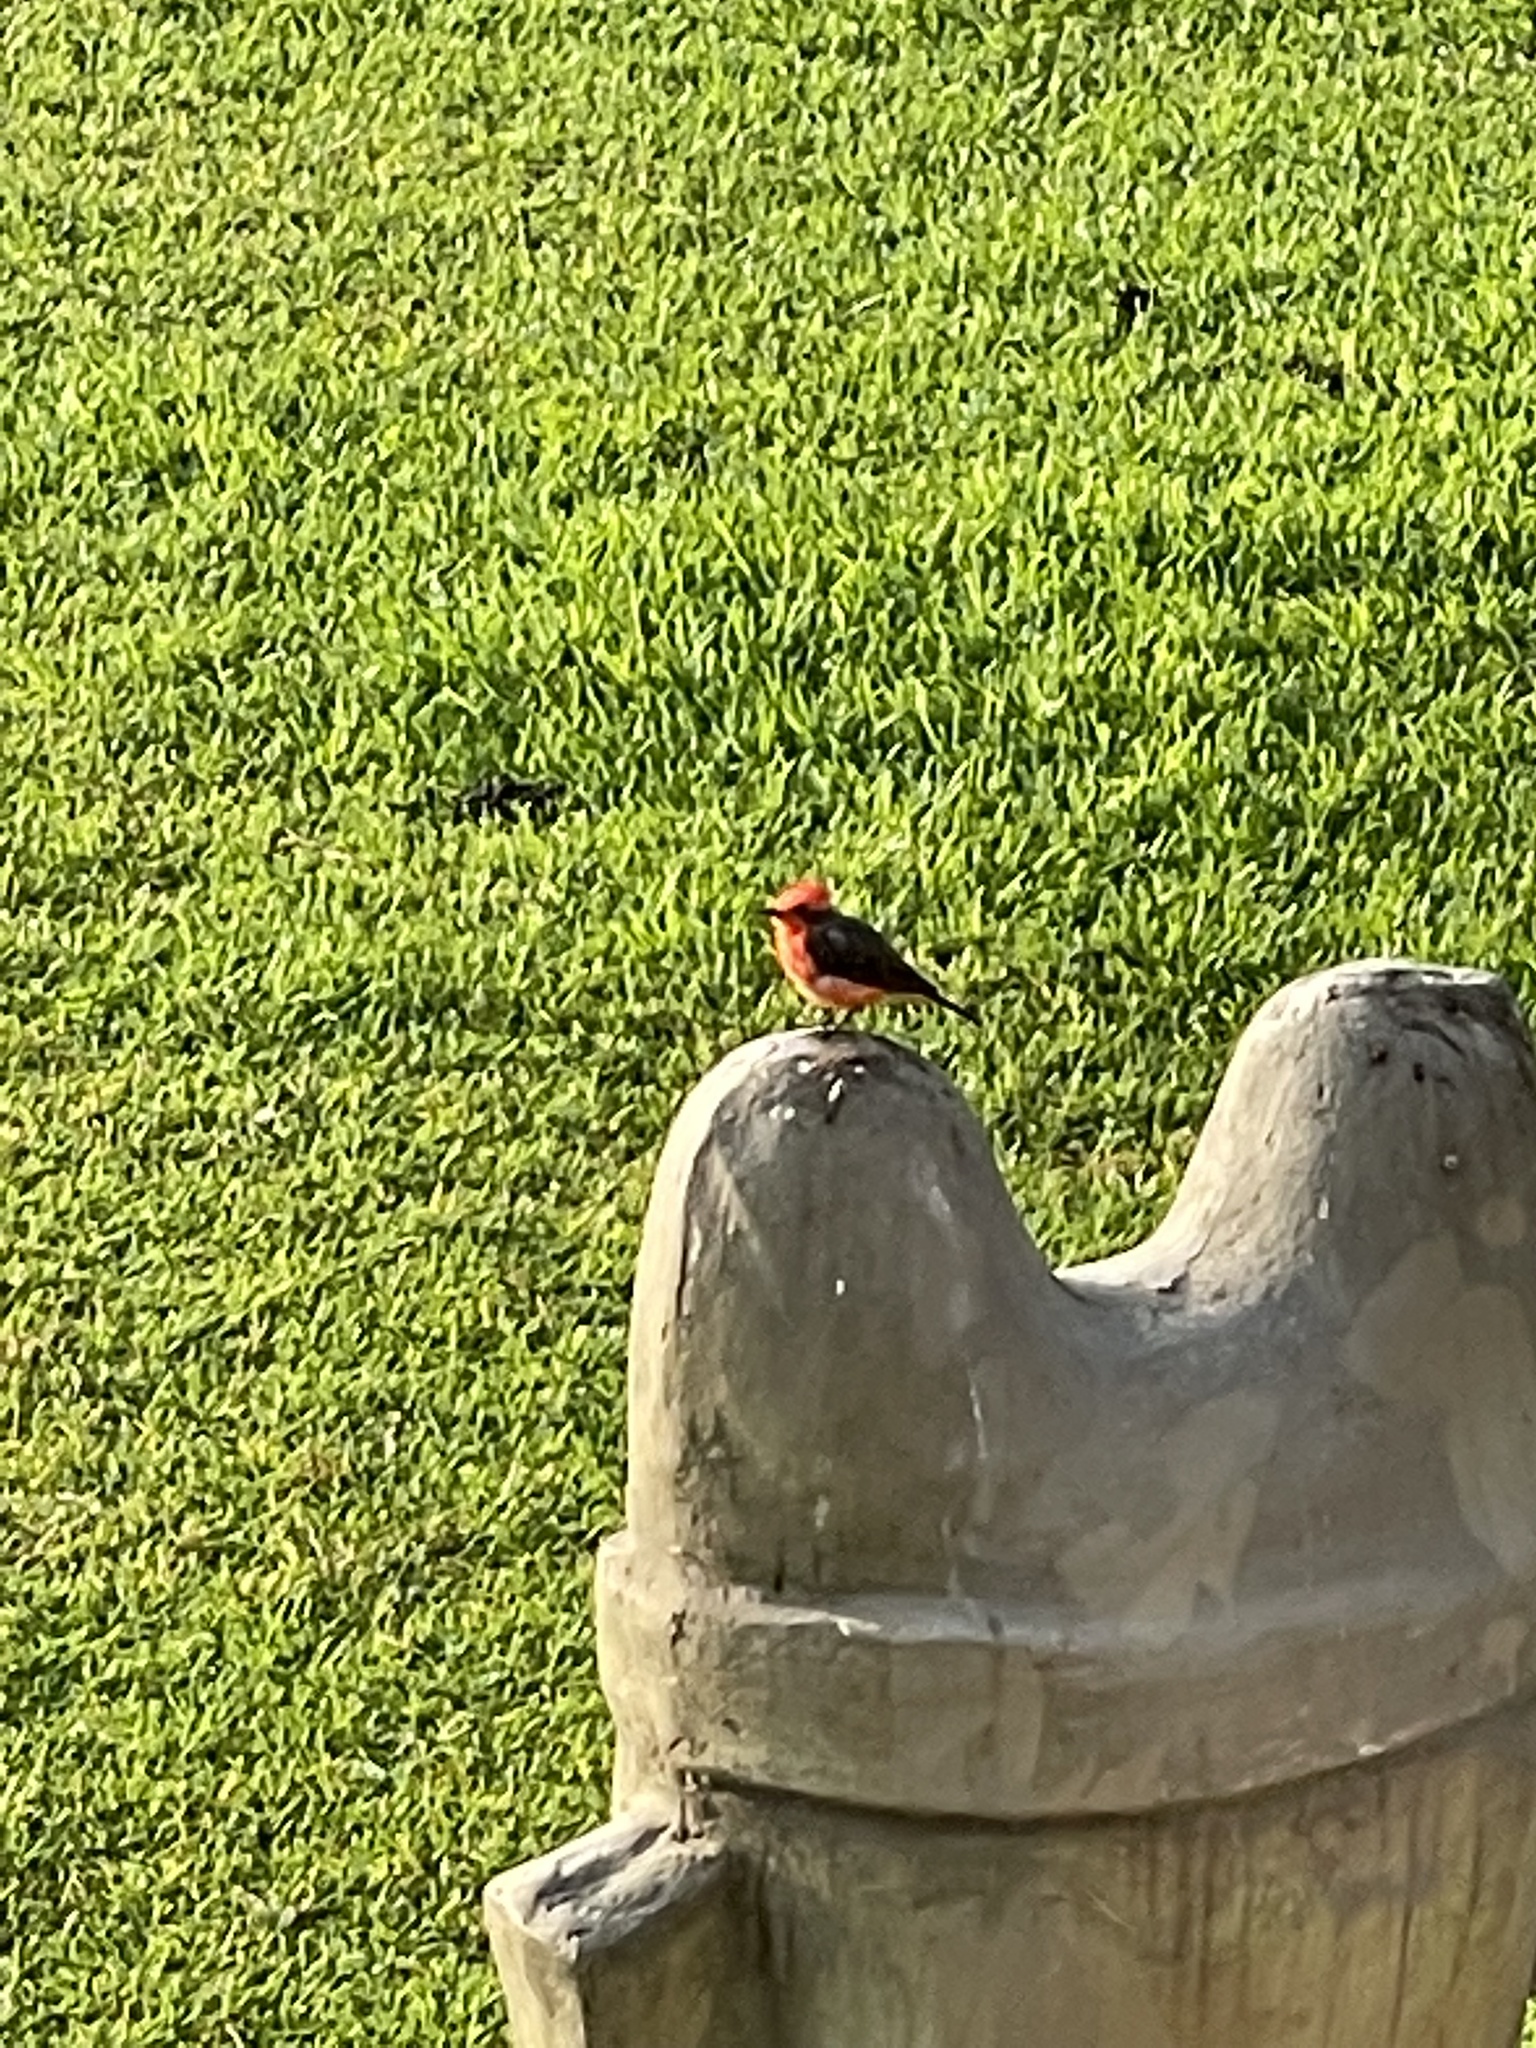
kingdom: Animalia
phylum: Chordata
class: Aves
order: Passeriformes
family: Tyrannidae
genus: Pyrocephalus
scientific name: Pyrocephalus rubinus
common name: Vermilion flycatcher
